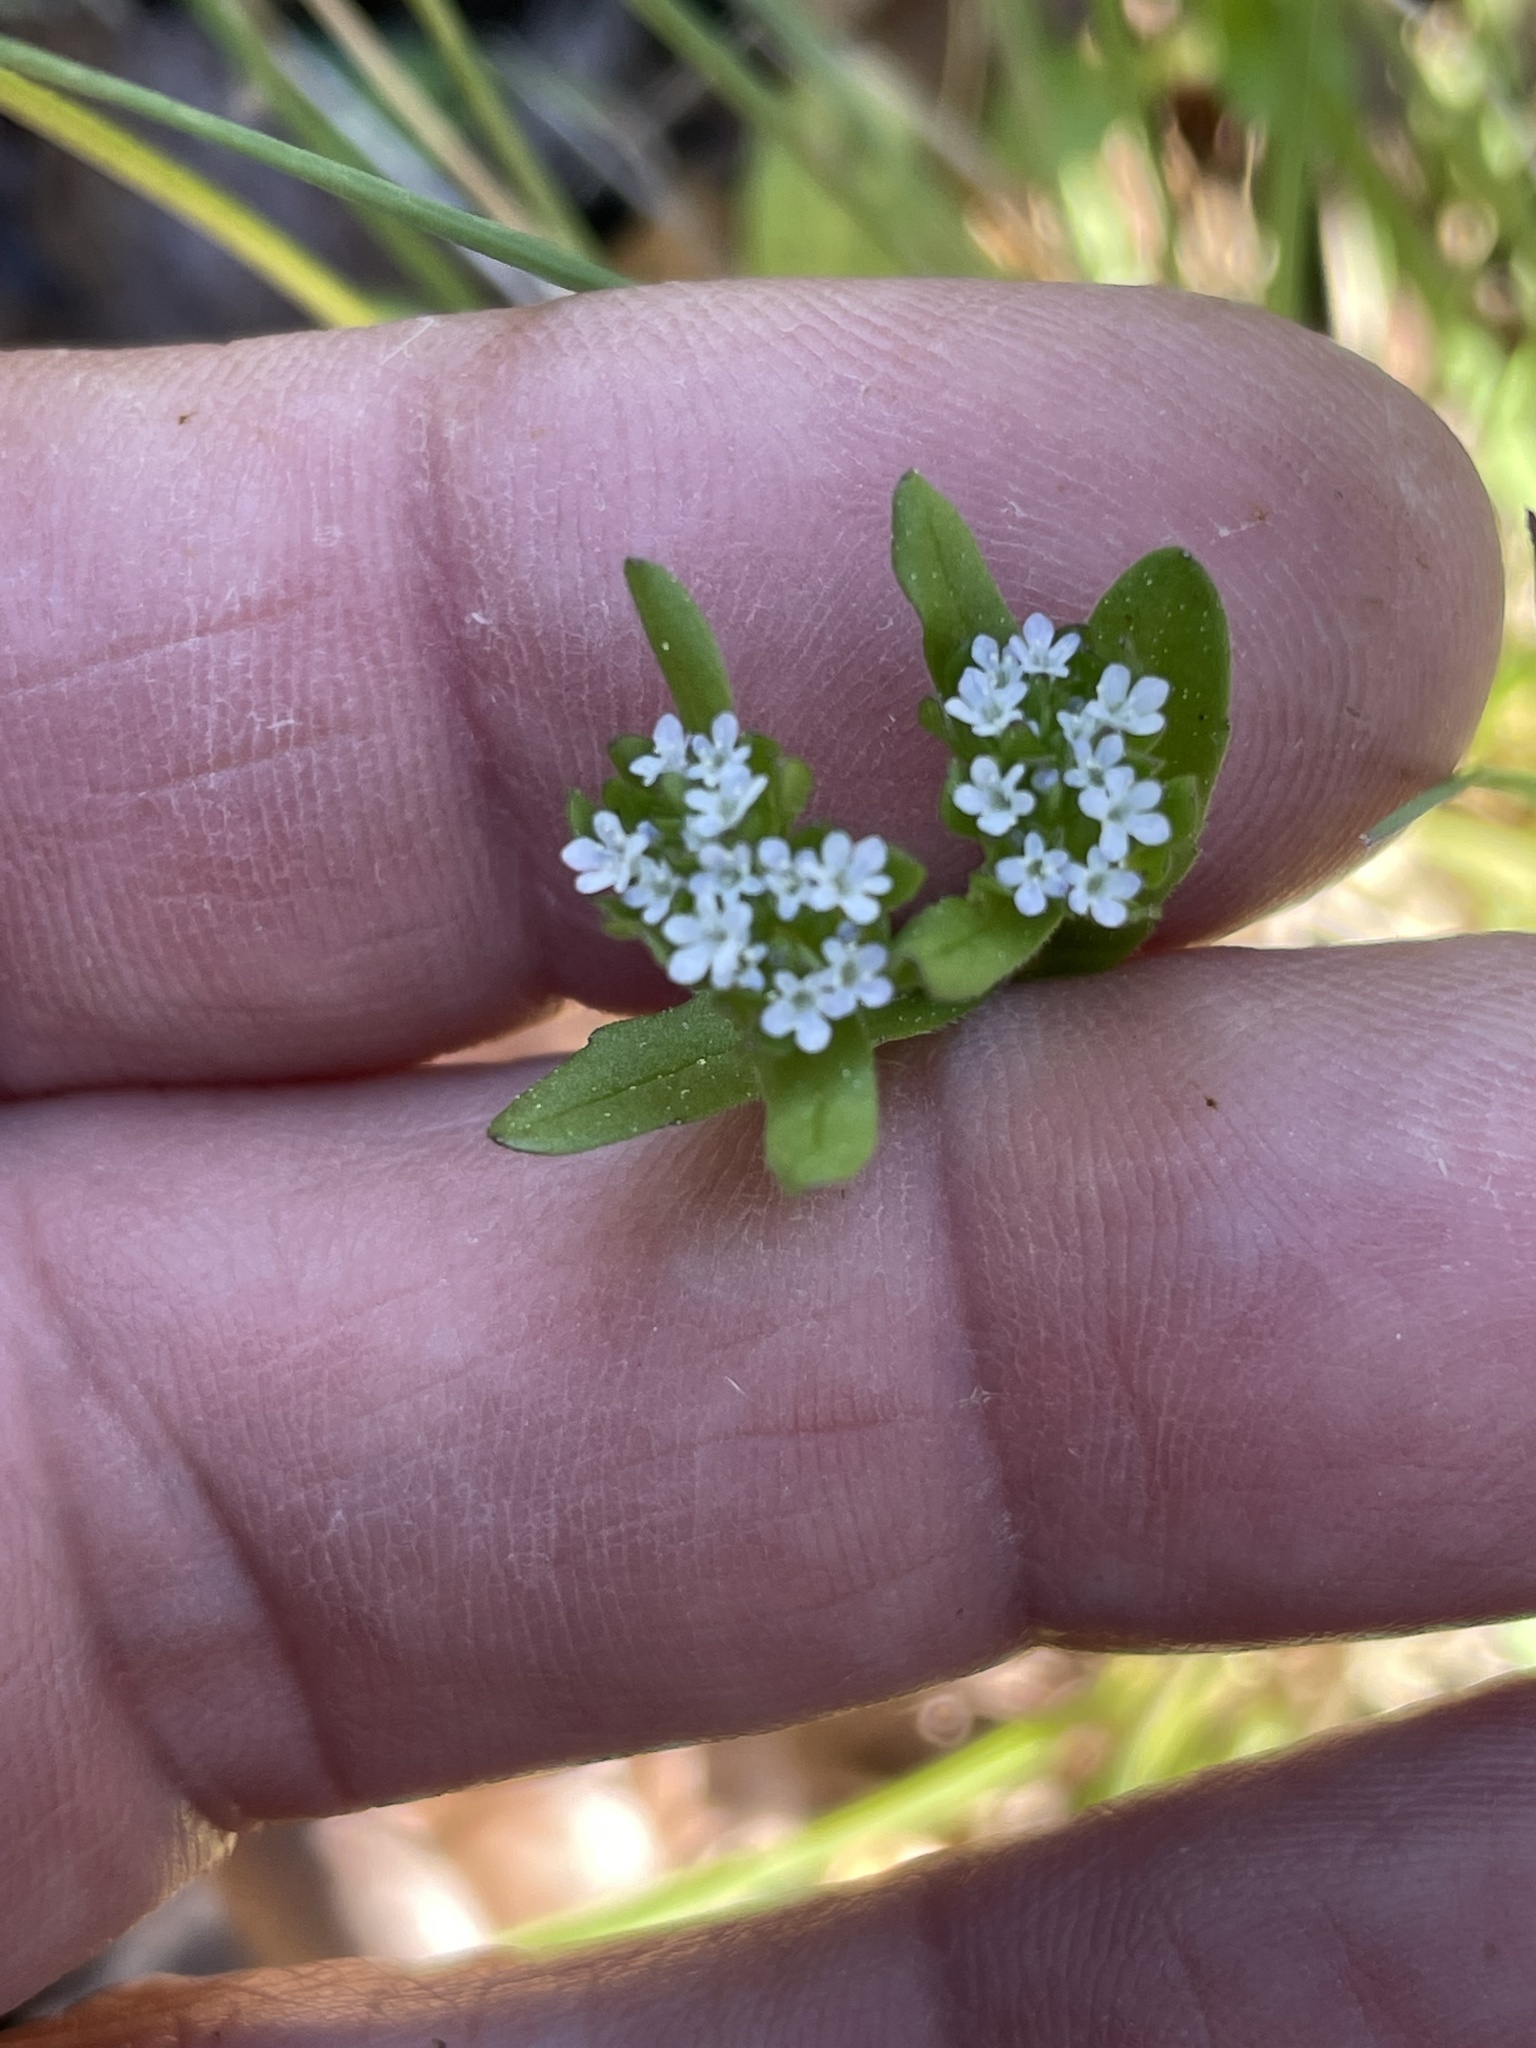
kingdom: Plantae
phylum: Tracheophyta
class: Magnoliopsida
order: Dipsacales
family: Caprifoliaceae
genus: Valerianella
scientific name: Valerianella locusta
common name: Common cornsalad
